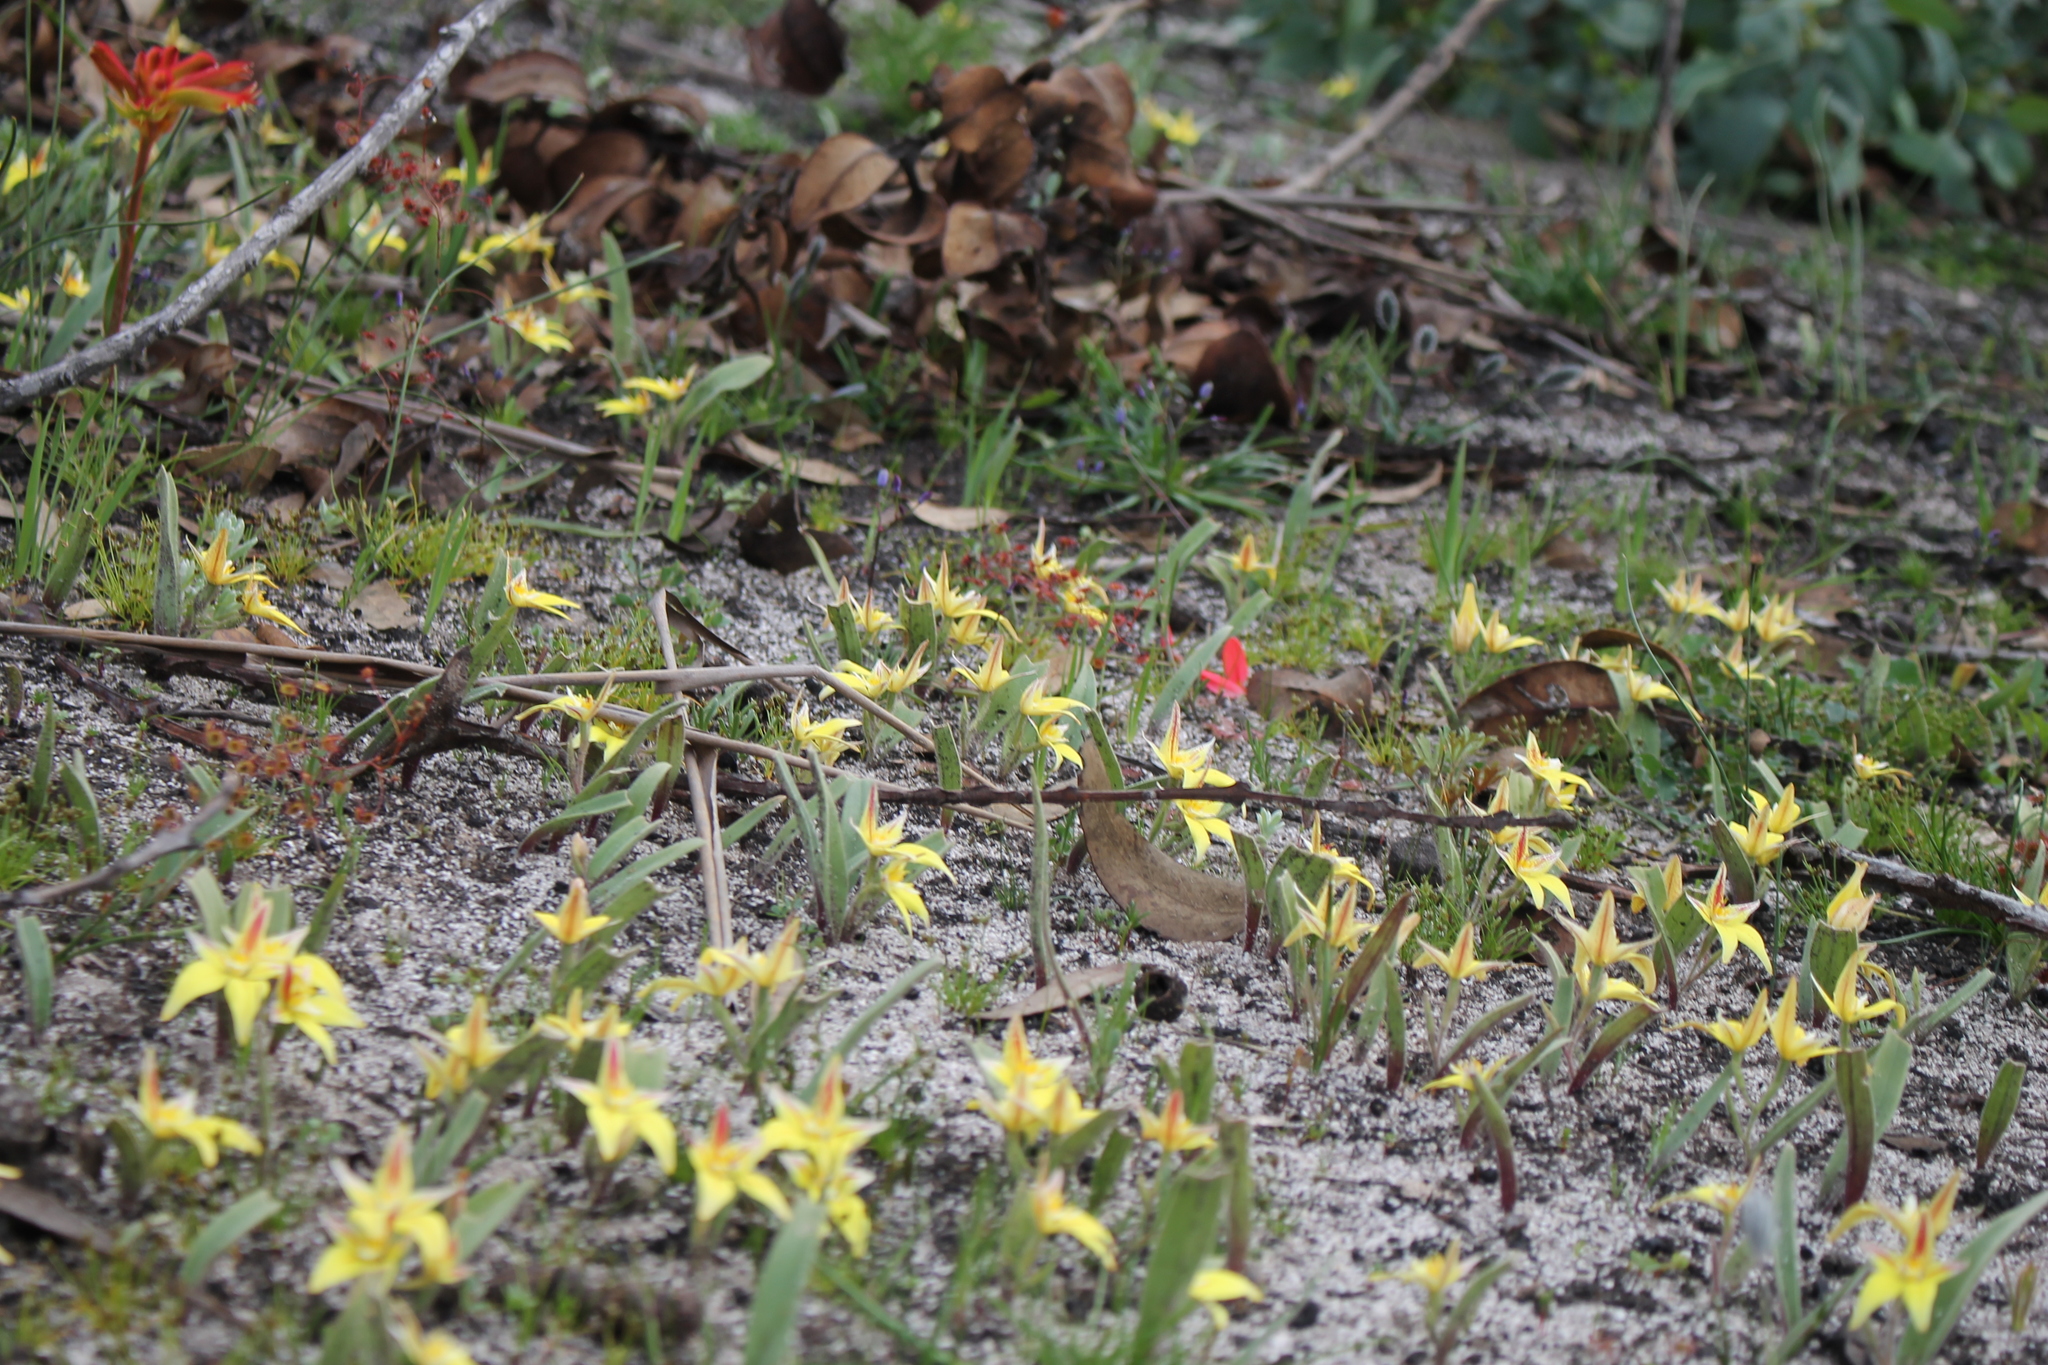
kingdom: Plantae
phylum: Tracheophyta
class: Liliopsida
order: Asparagales
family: Orchidaceae
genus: Caladenia
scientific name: Caladenia flava
